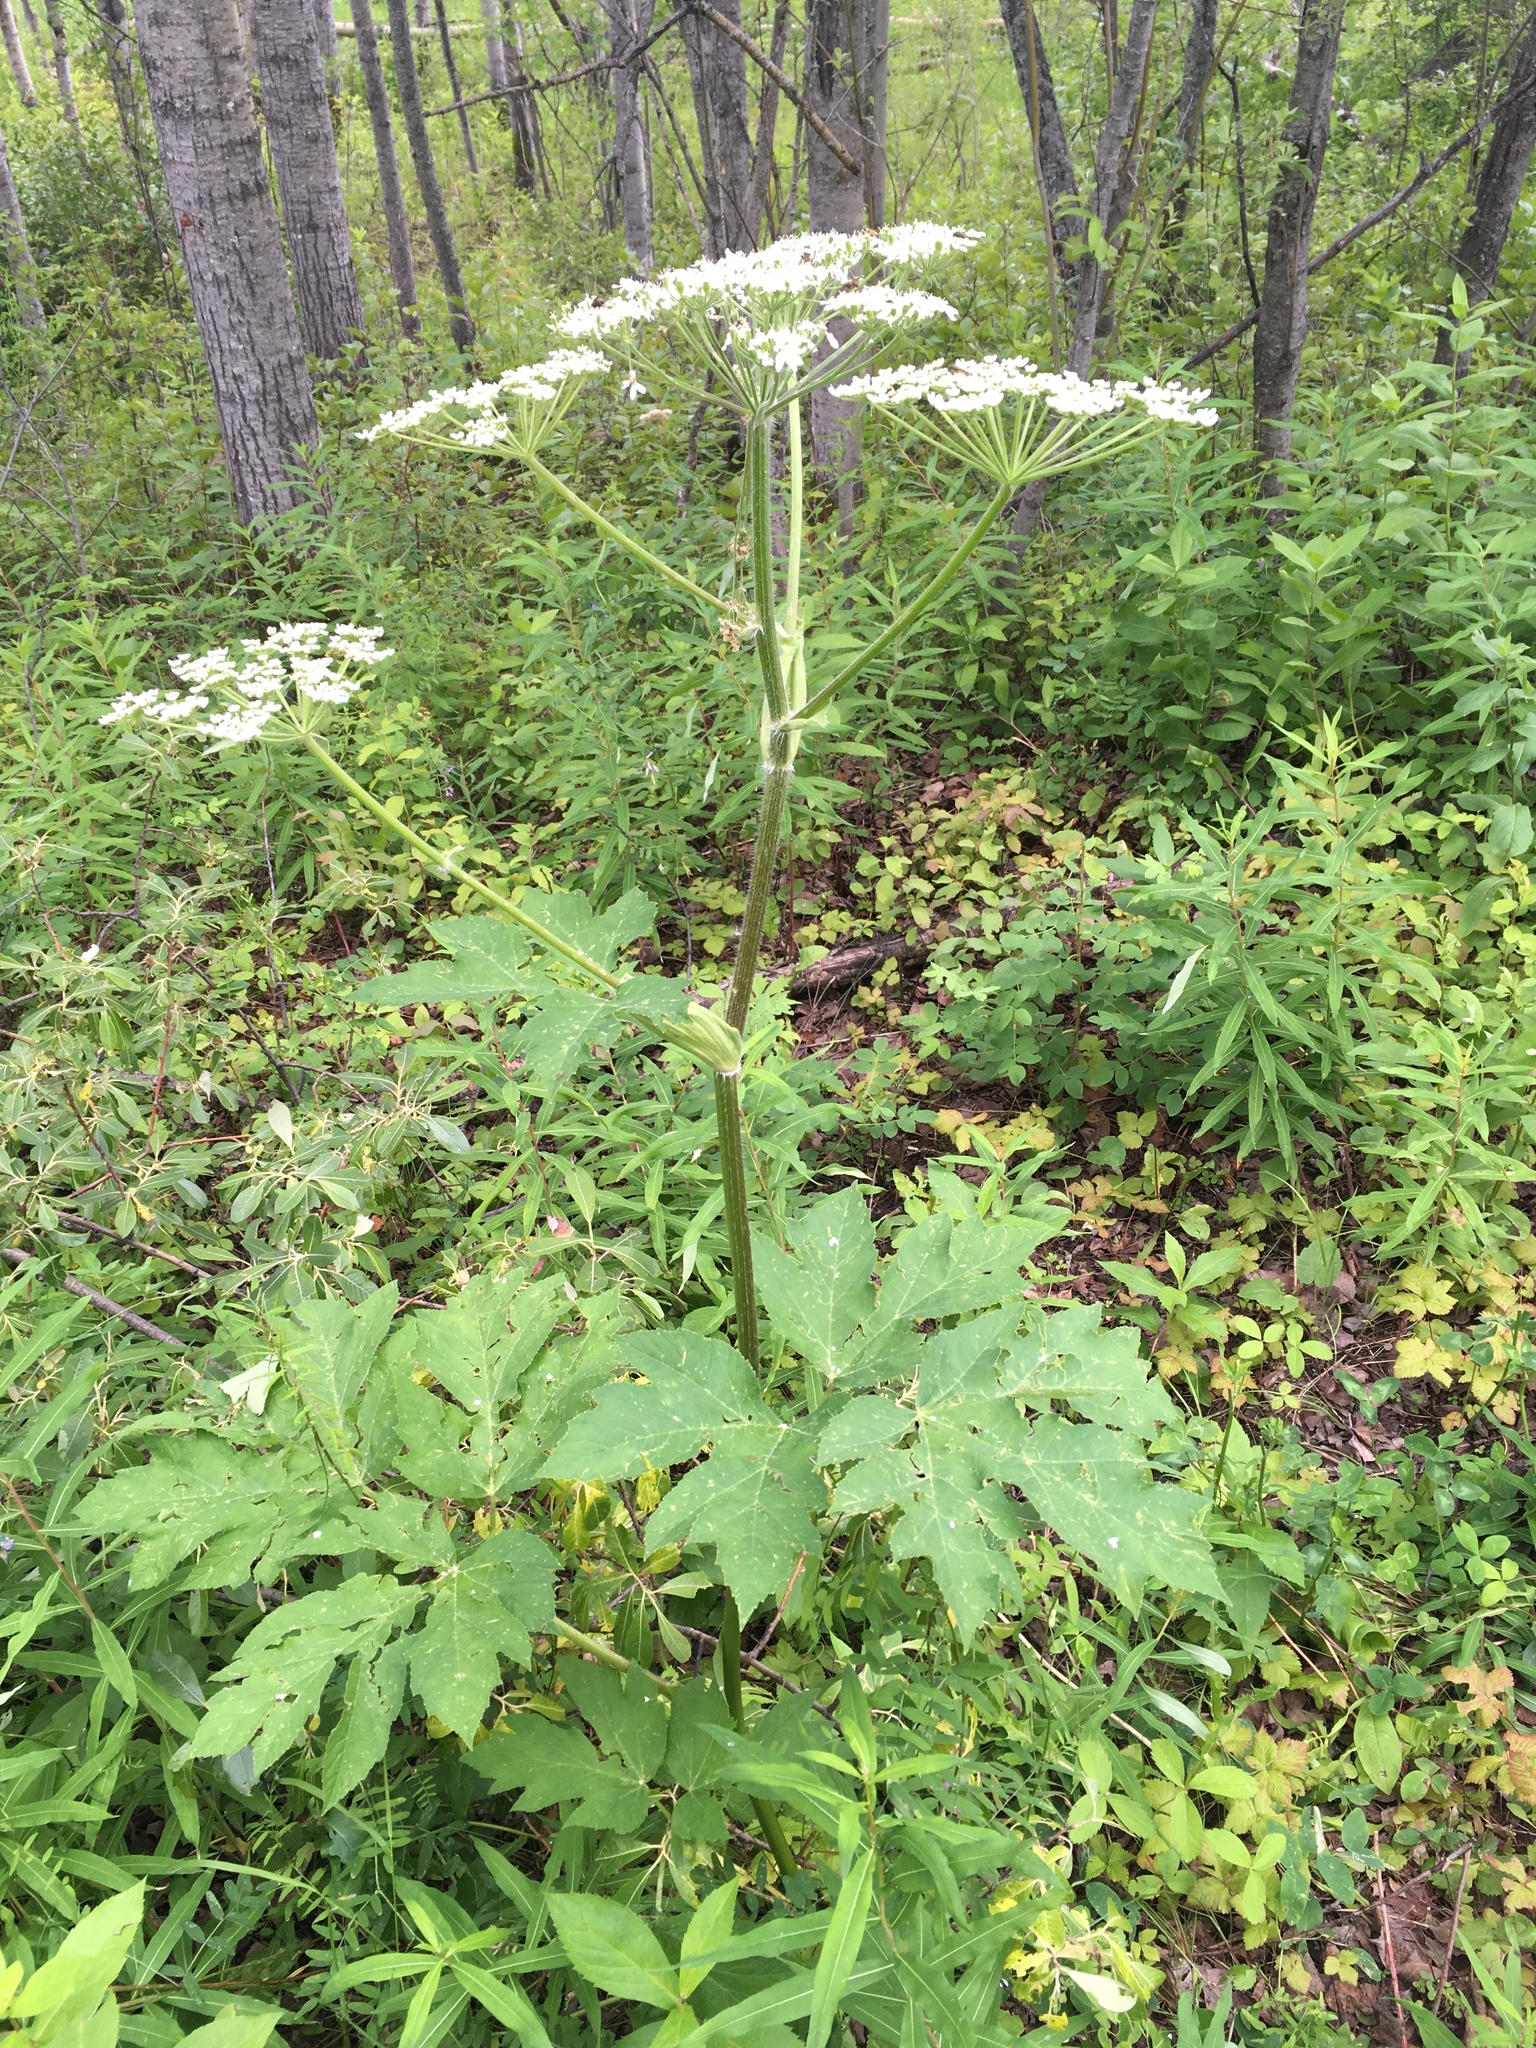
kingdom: Plantae
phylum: Tracheophyta
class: Magnoliopsida
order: Apiales
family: Apiaceae
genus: Heracleum
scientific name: Heracleum maximum
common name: American cow parsnip
